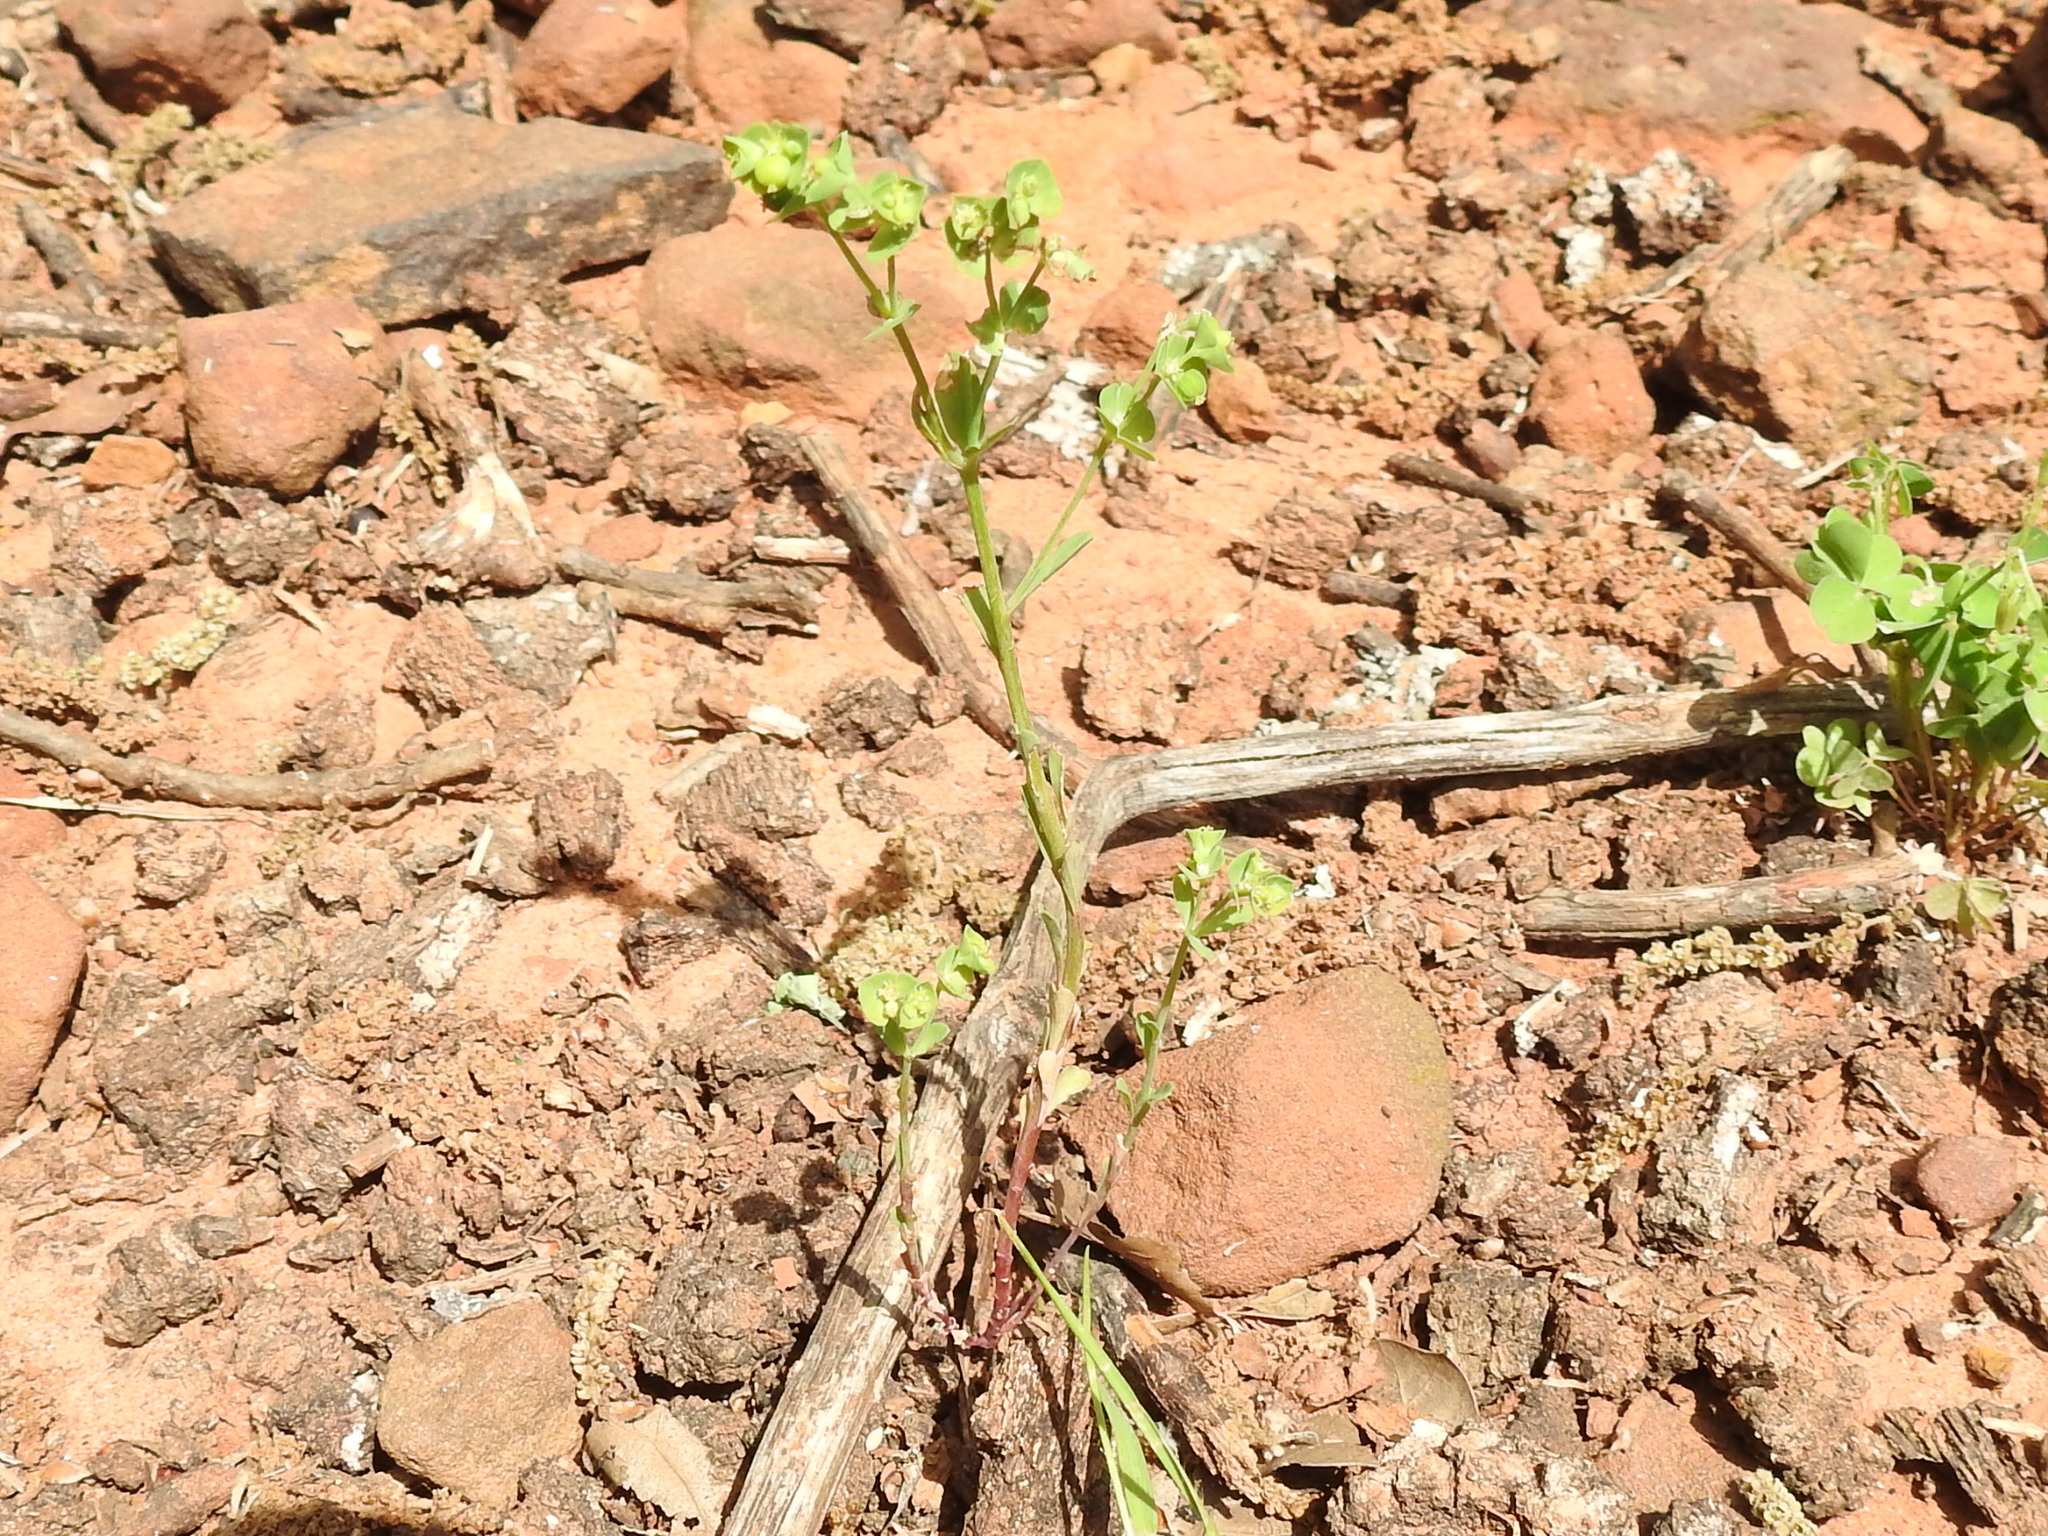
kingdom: Plantae
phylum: Tracheophyta
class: Magnoliopsida
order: Malpighiales
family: Euphorbiaceae
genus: Euphorbia
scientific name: Euphorbia tetrapora
